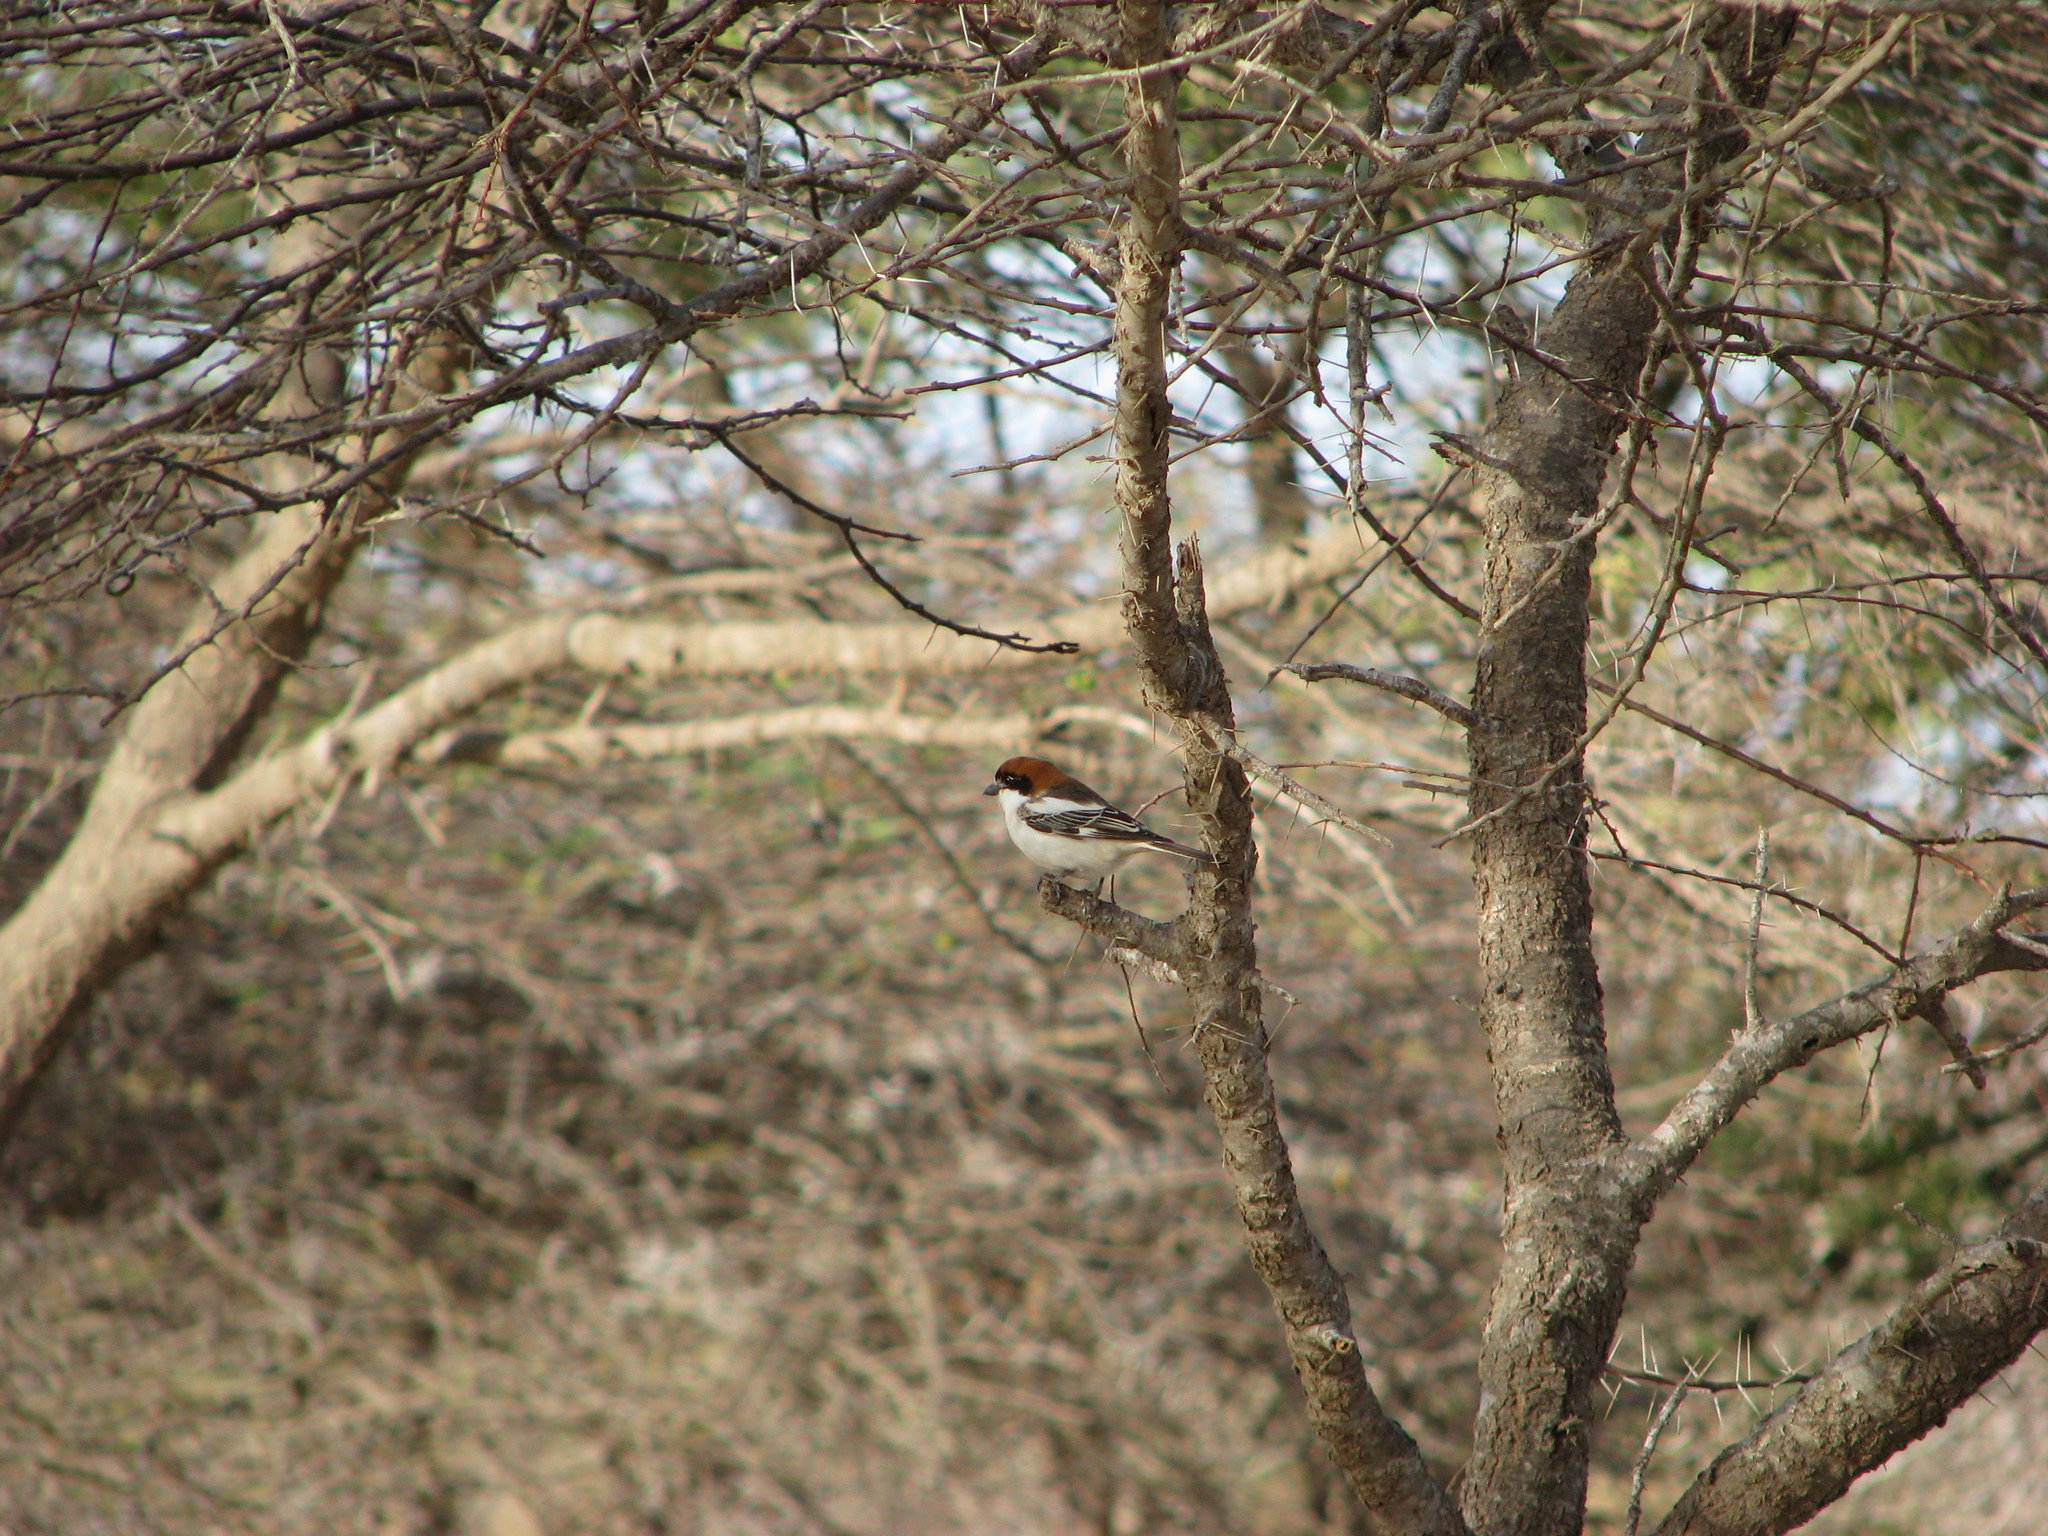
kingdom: Animalia
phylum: Chordata
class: Aves
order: Passeriformes
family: Laniidae
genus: Lanius
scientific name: Lanius senator
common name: Woodchat shrike
